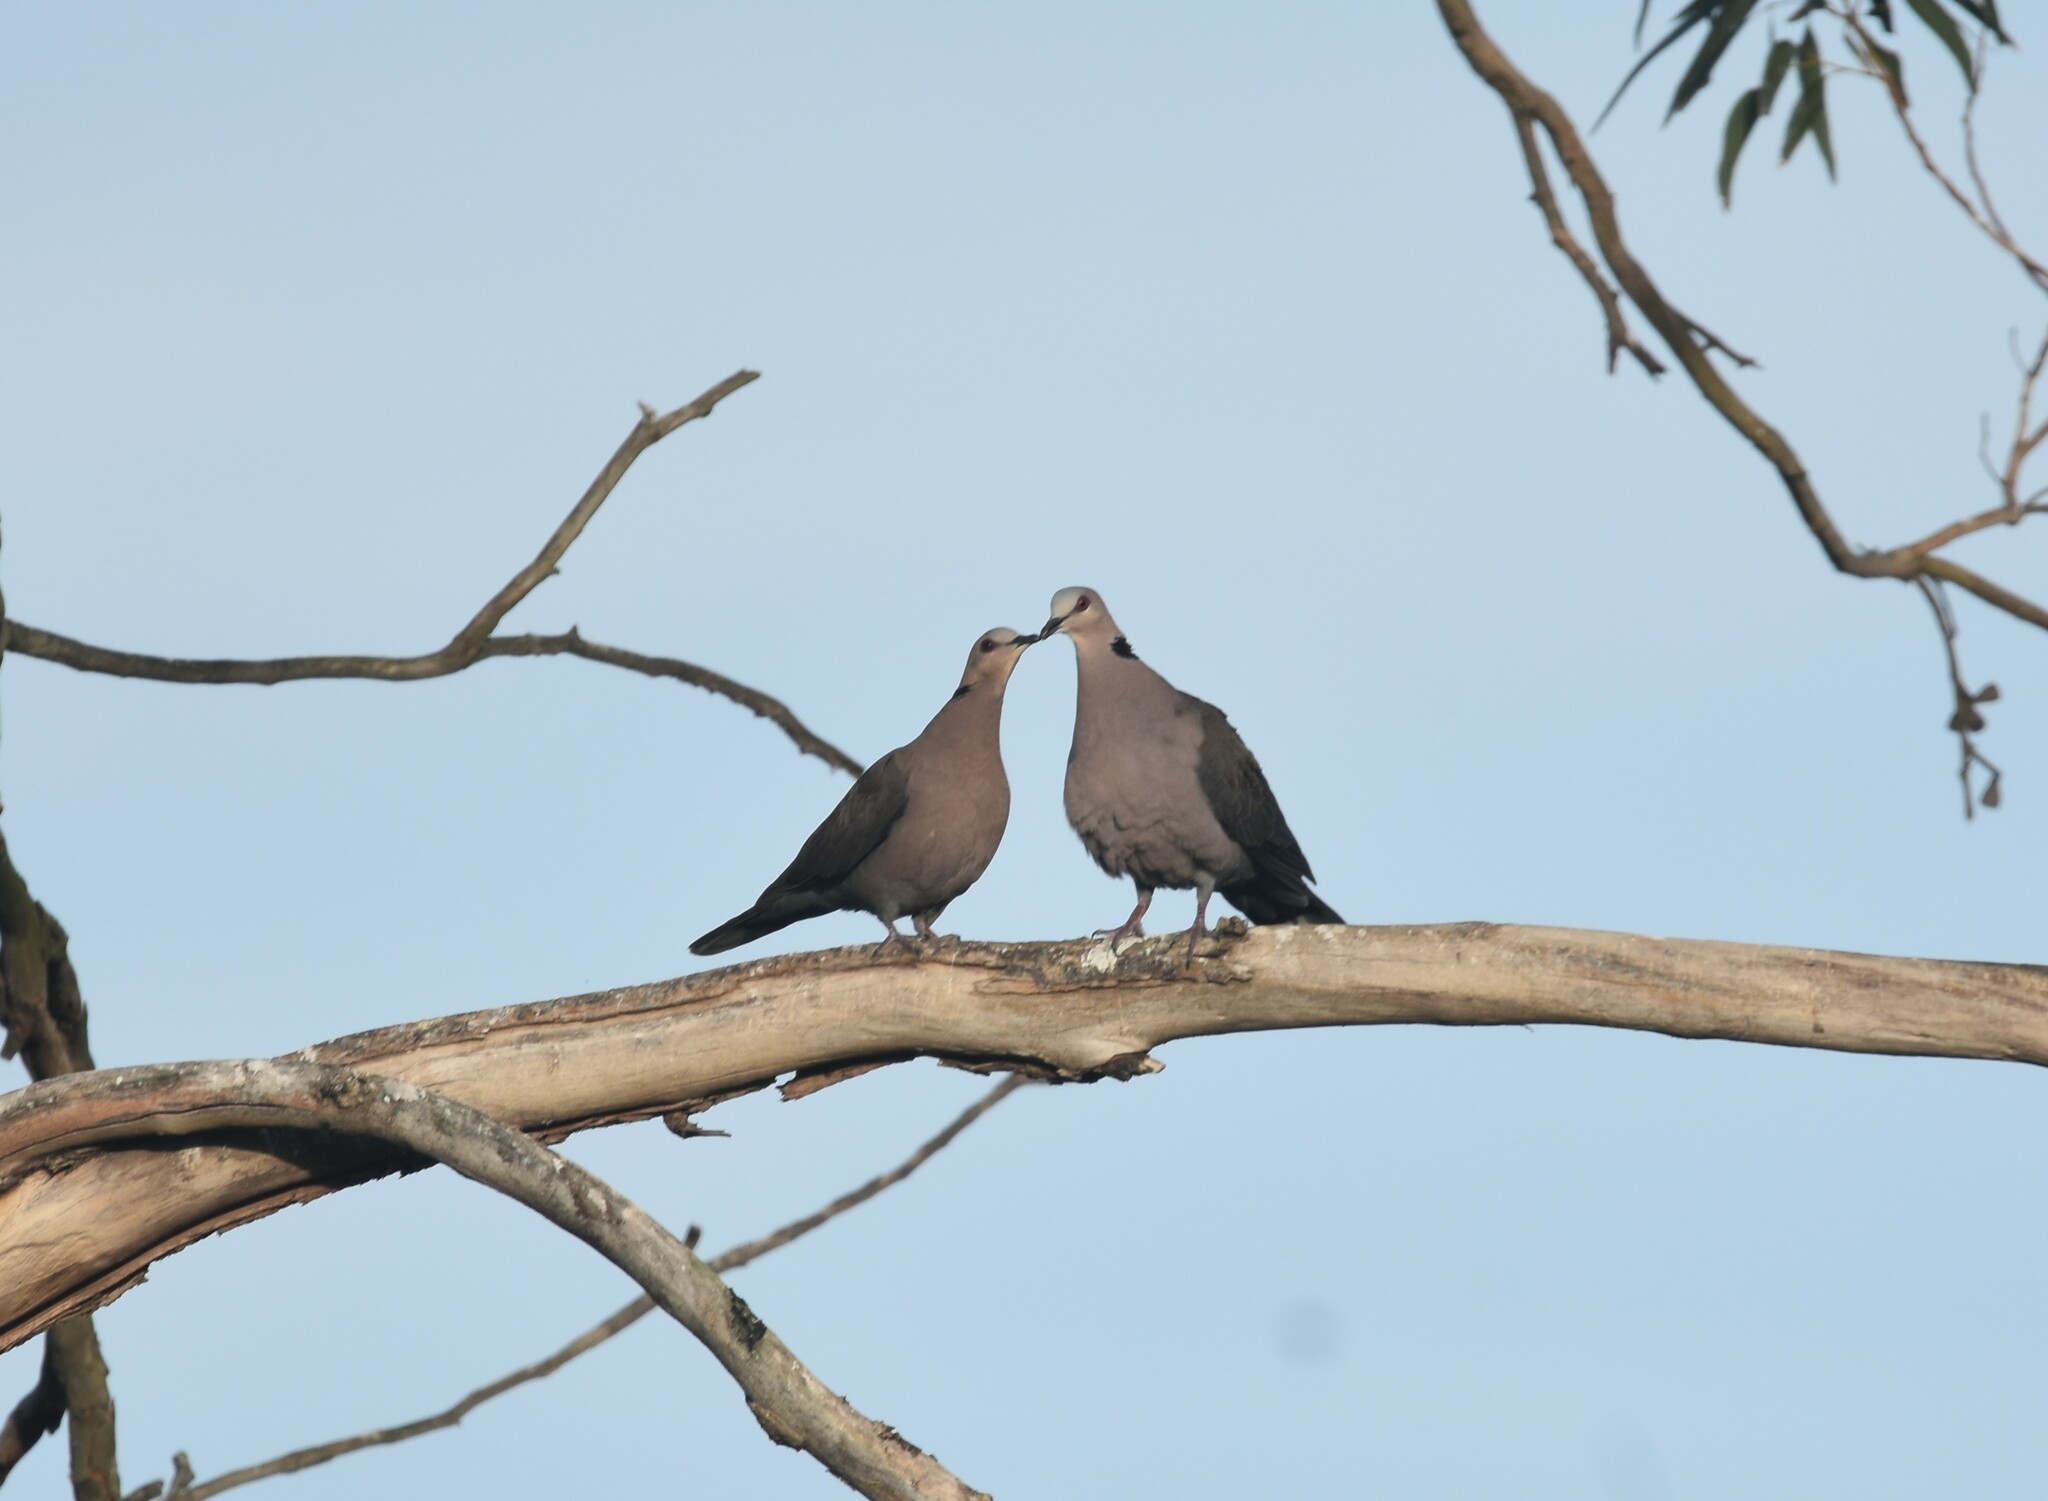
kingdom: Animalia
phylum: Chordata
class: Aves
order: Columbiformes
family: Columbidae
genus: Streptopelia
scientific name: Streptopelia semitorquata
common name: Red-eyed dove
